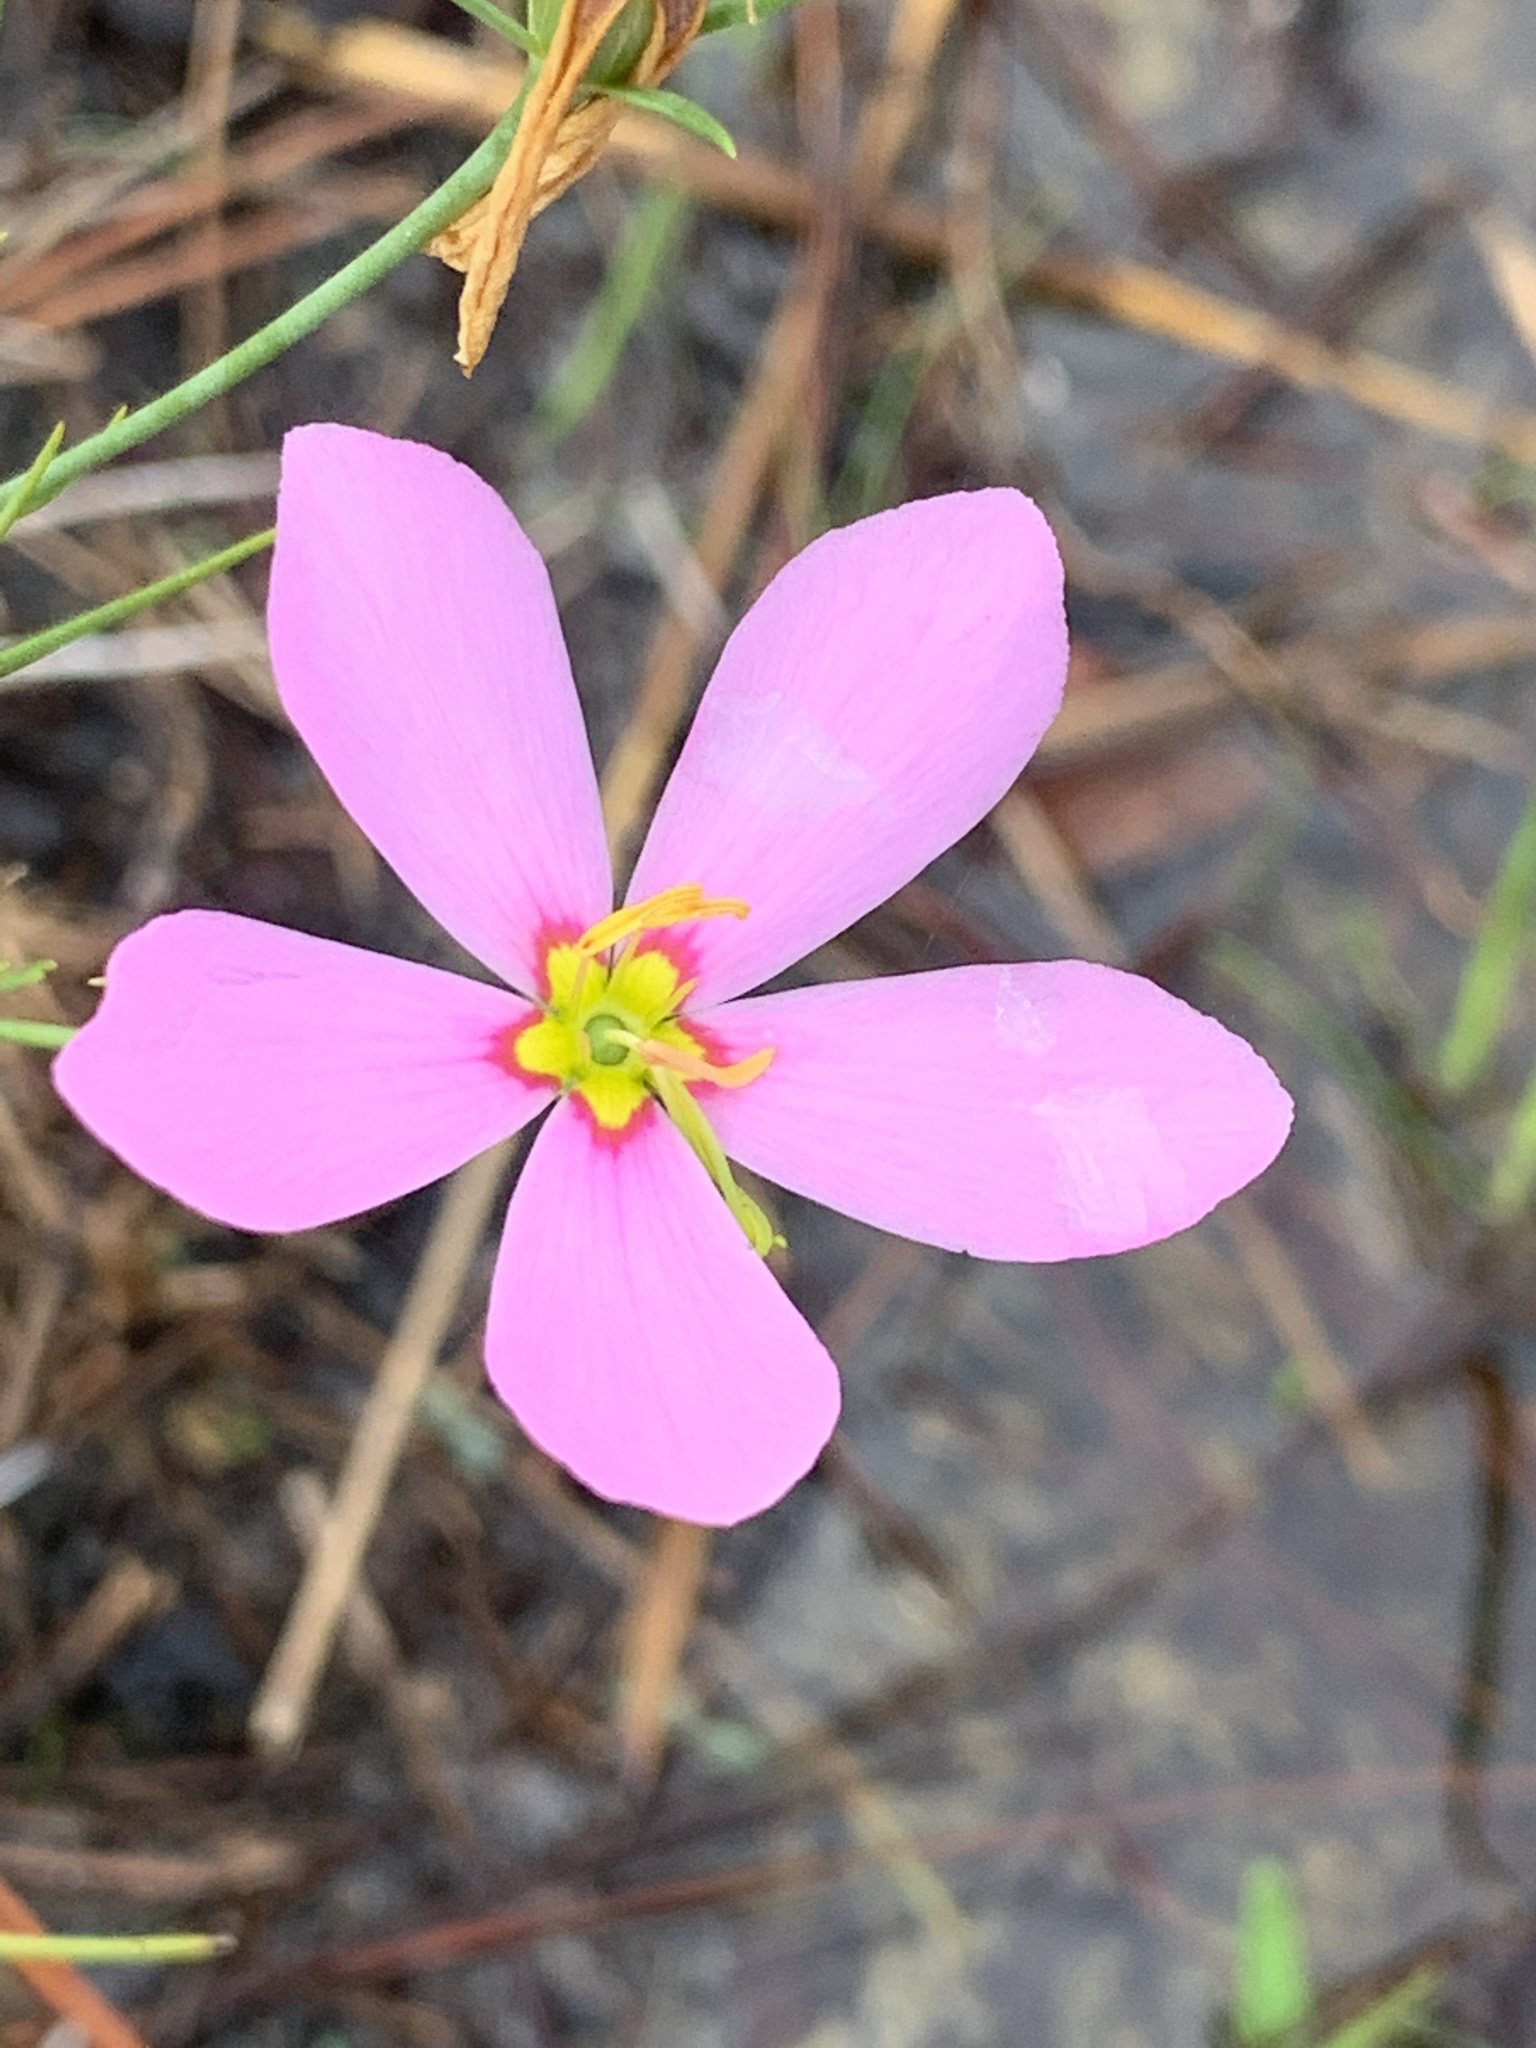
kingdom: Plantae
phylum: Tracheophyta
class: Magnoliopsida
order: Gentianales
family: Gentianaceae
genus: Sabatia
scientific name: Sabatia grandiflora
